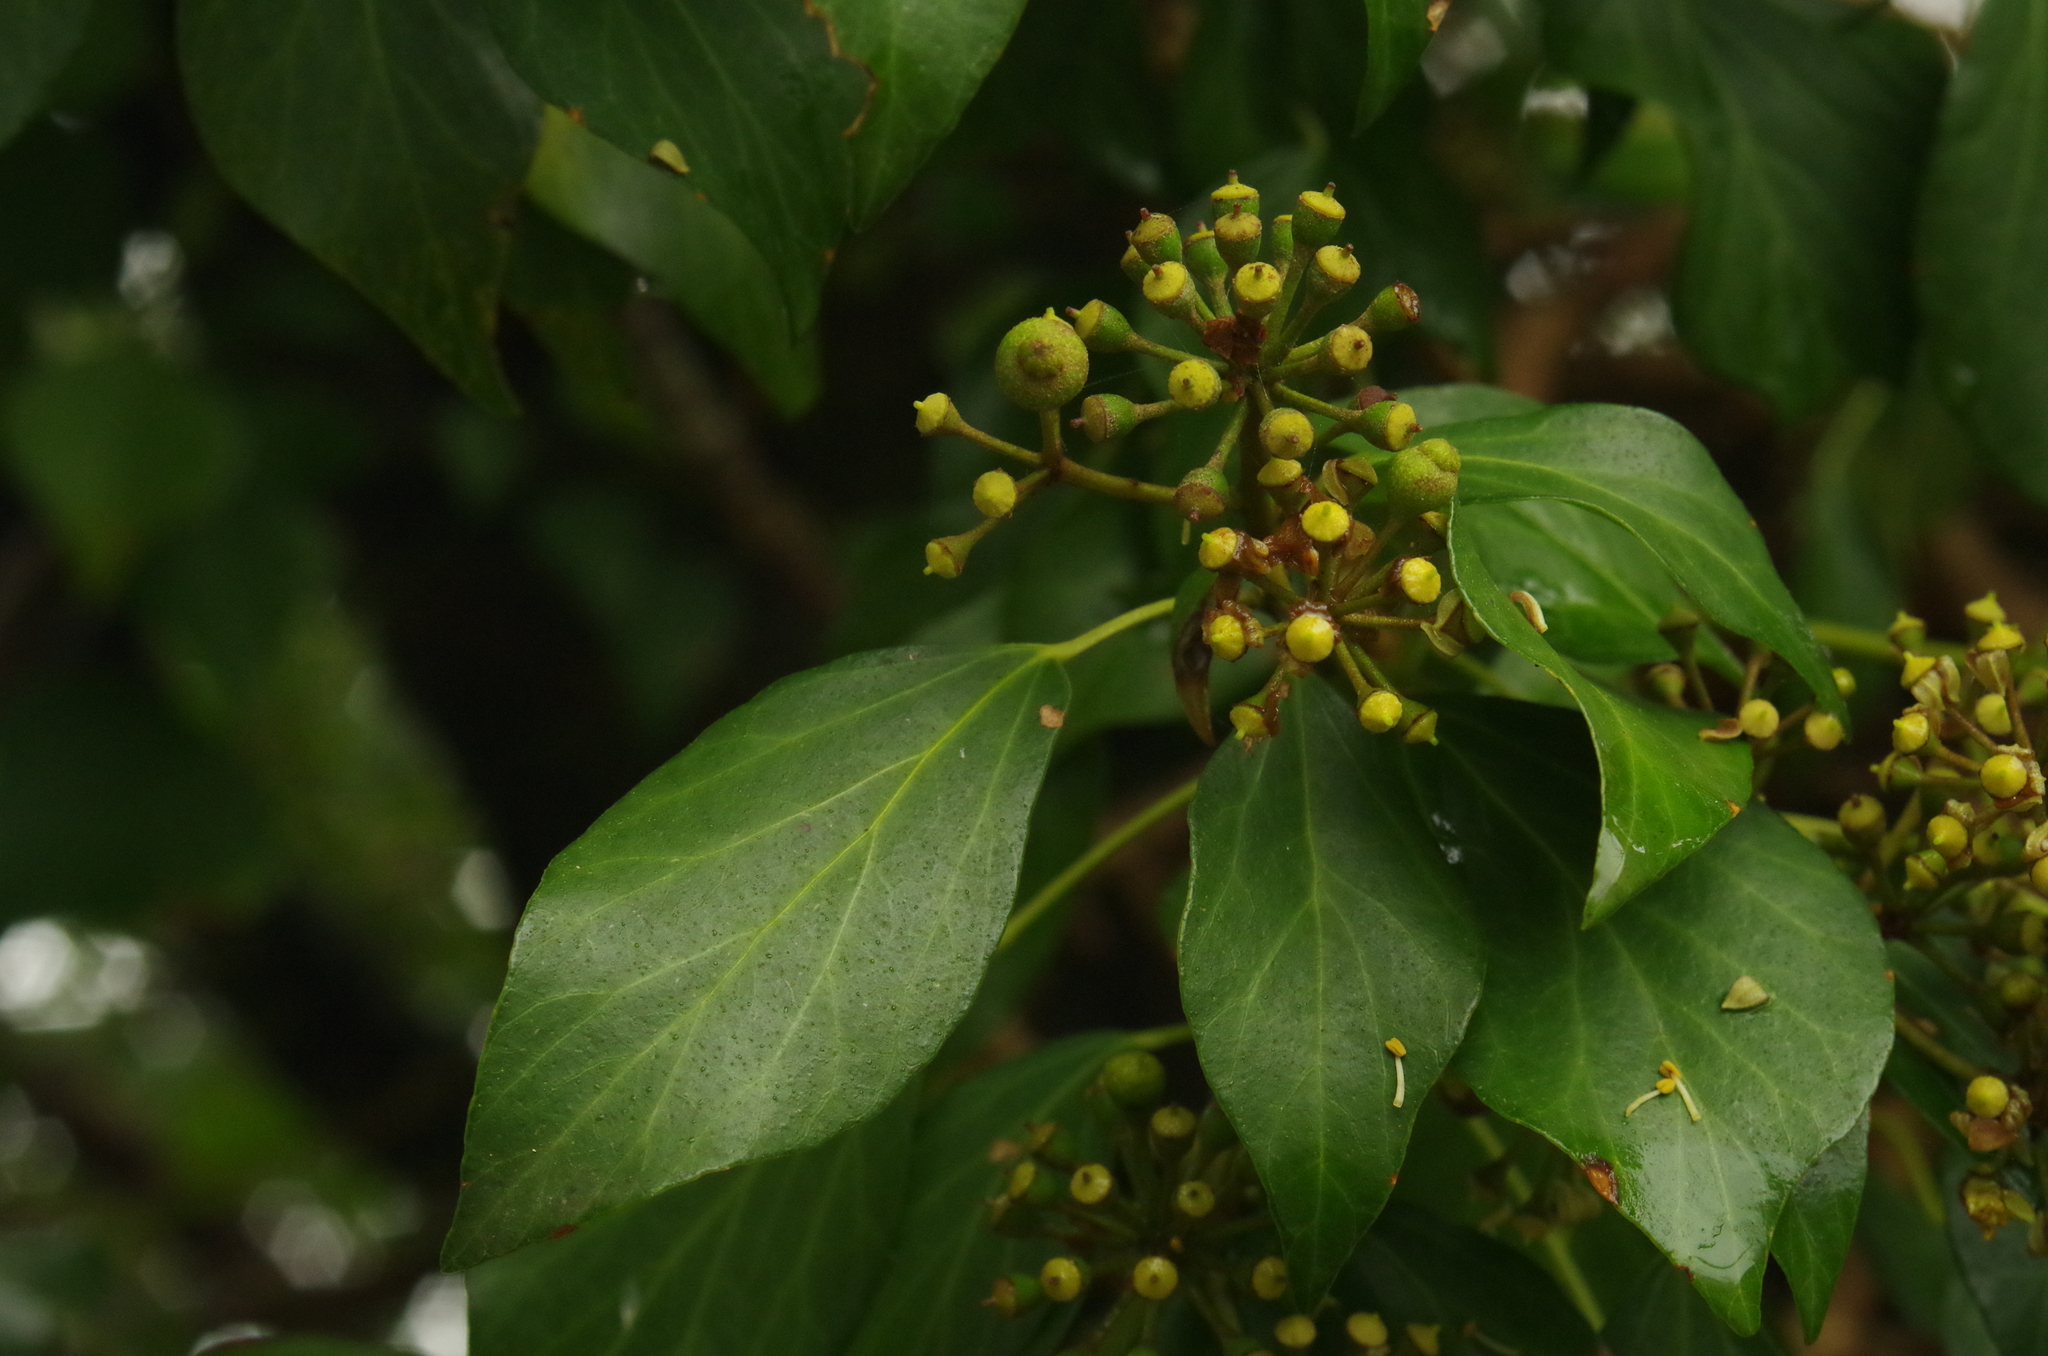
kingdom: Plantae
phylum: Tracheophyta
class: Magnoliopsida
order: Apiales
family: Araliaceae
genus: Hedera
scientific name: Hedera rhombea
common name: Japanese ivy
